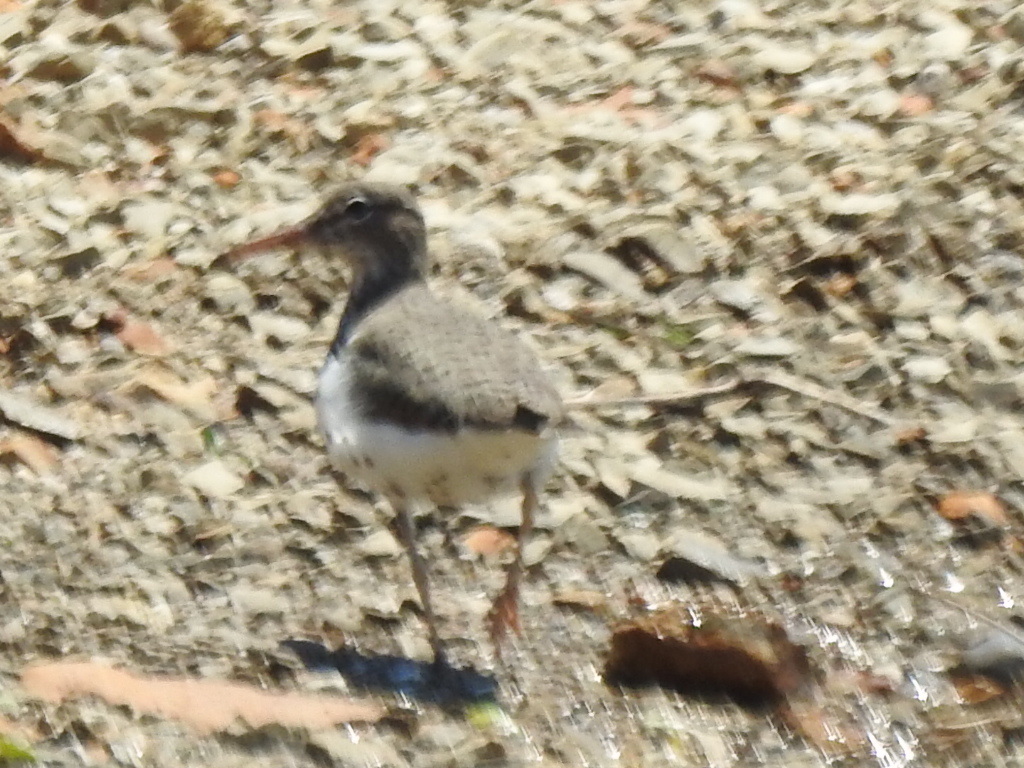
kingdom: Animalia
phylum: Chordata
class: Aves
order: Charadriiformes
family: Scolopacidae
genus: Actitis
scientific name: Actitis macularius
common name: Spotted sandpiper
